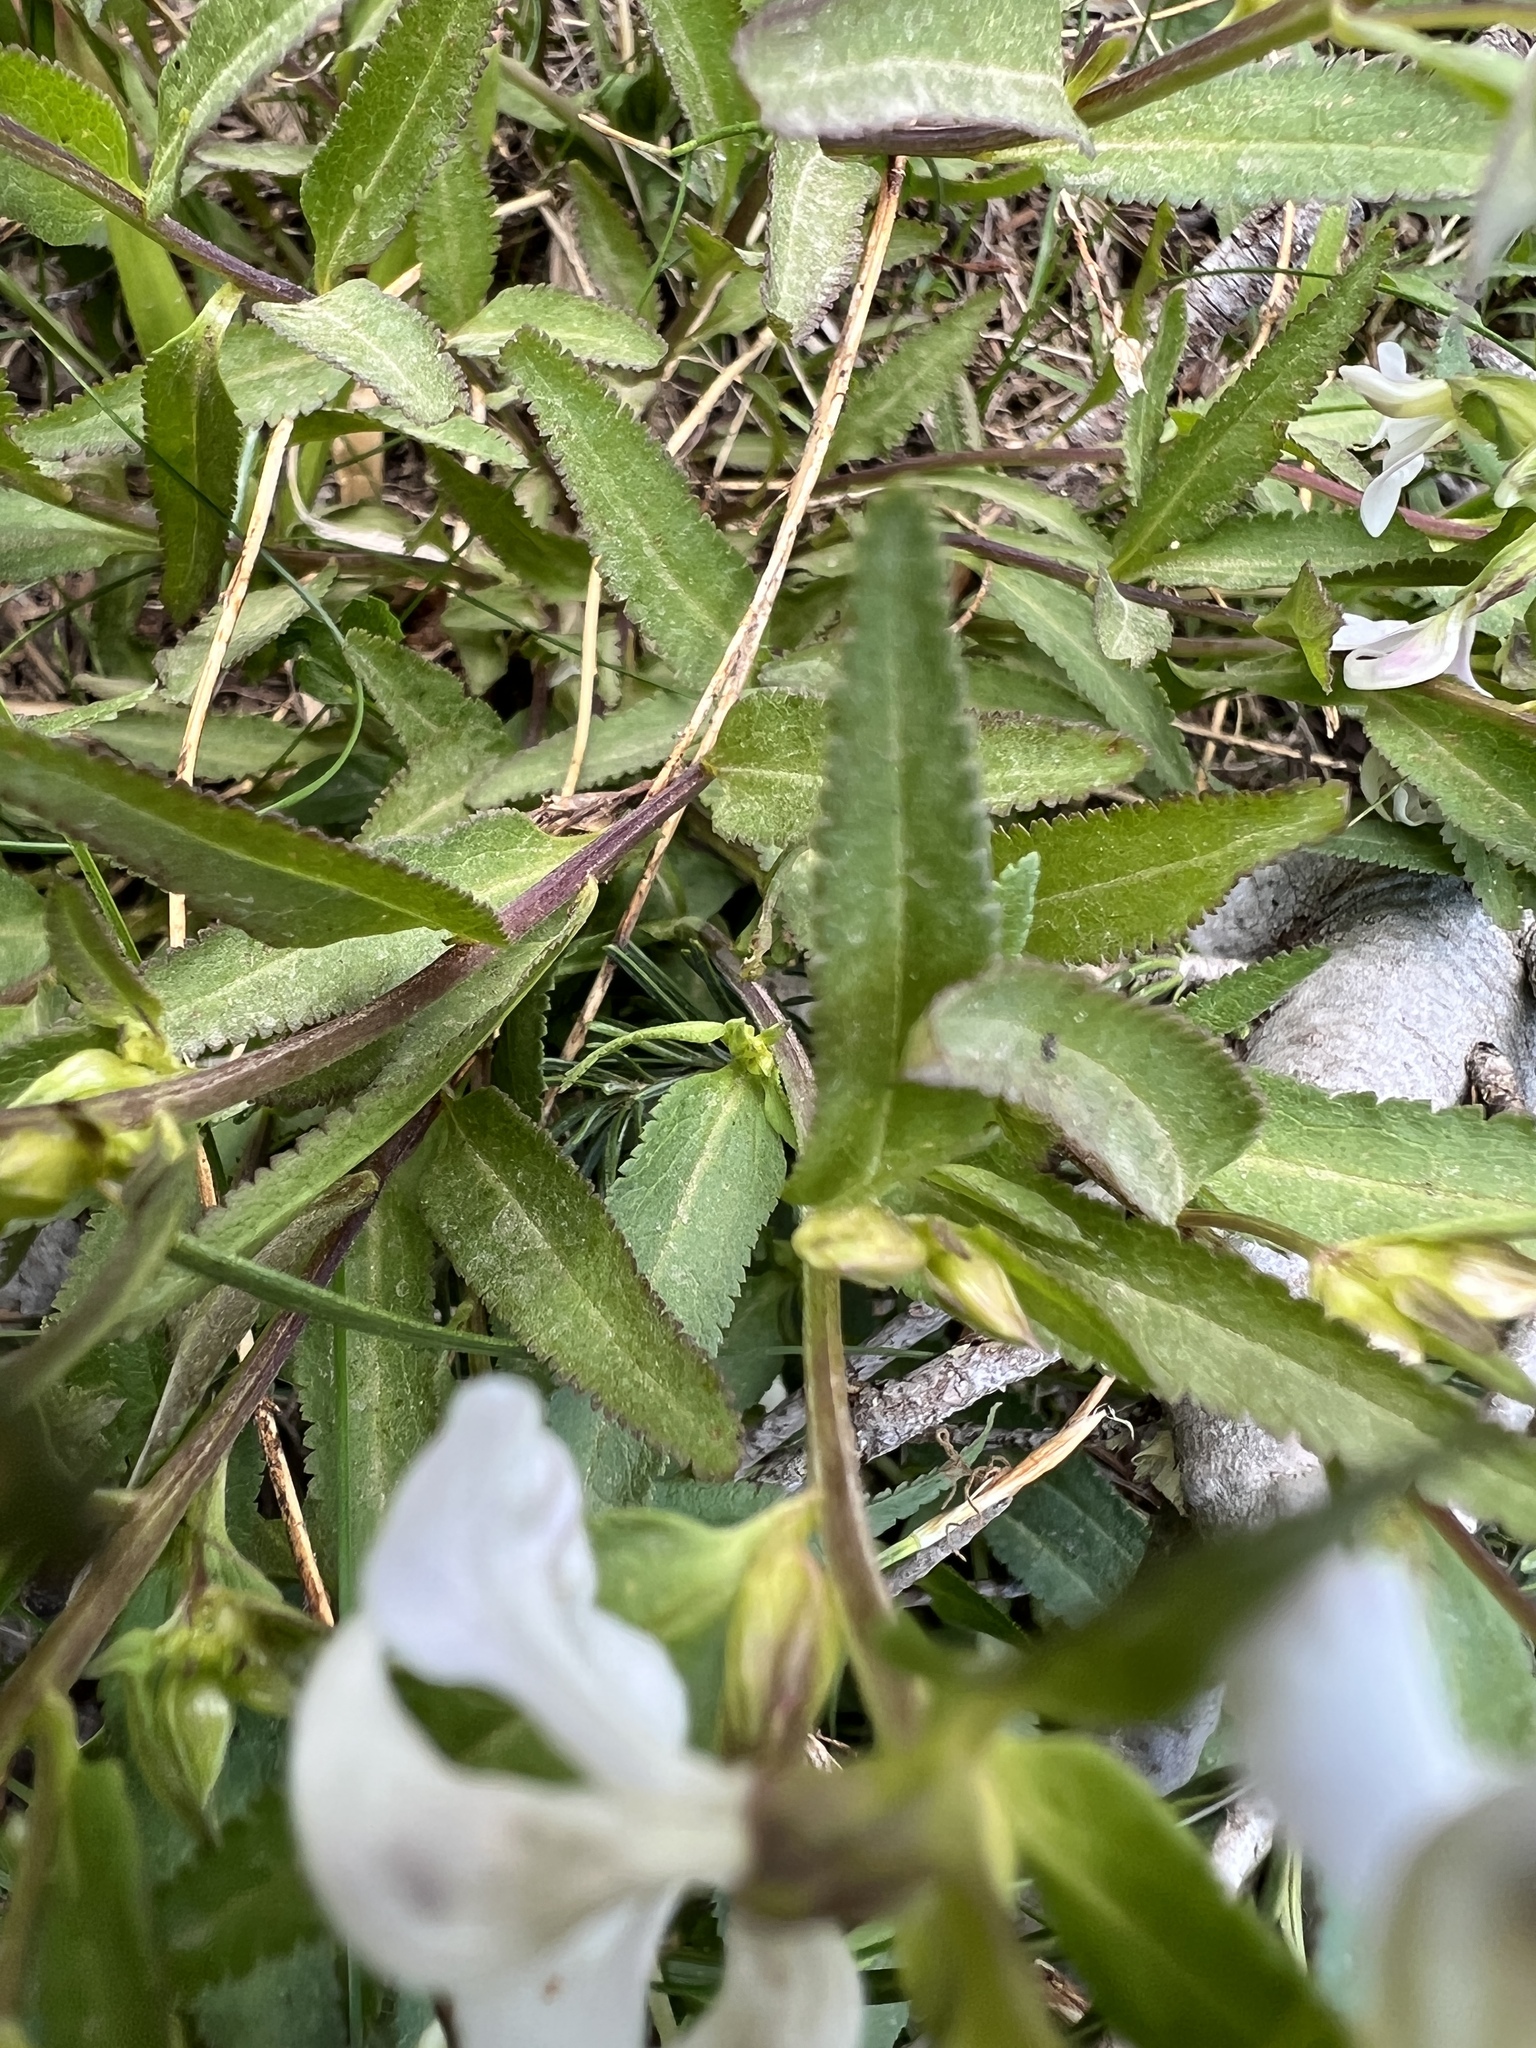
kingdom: Plantae
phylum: Tracheophyta
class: Magnoliopsida
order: Lamiales
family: Orobanchaceae
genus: Pedicularis
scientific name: Pedicularis racemosa
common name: Leafy lousewort
